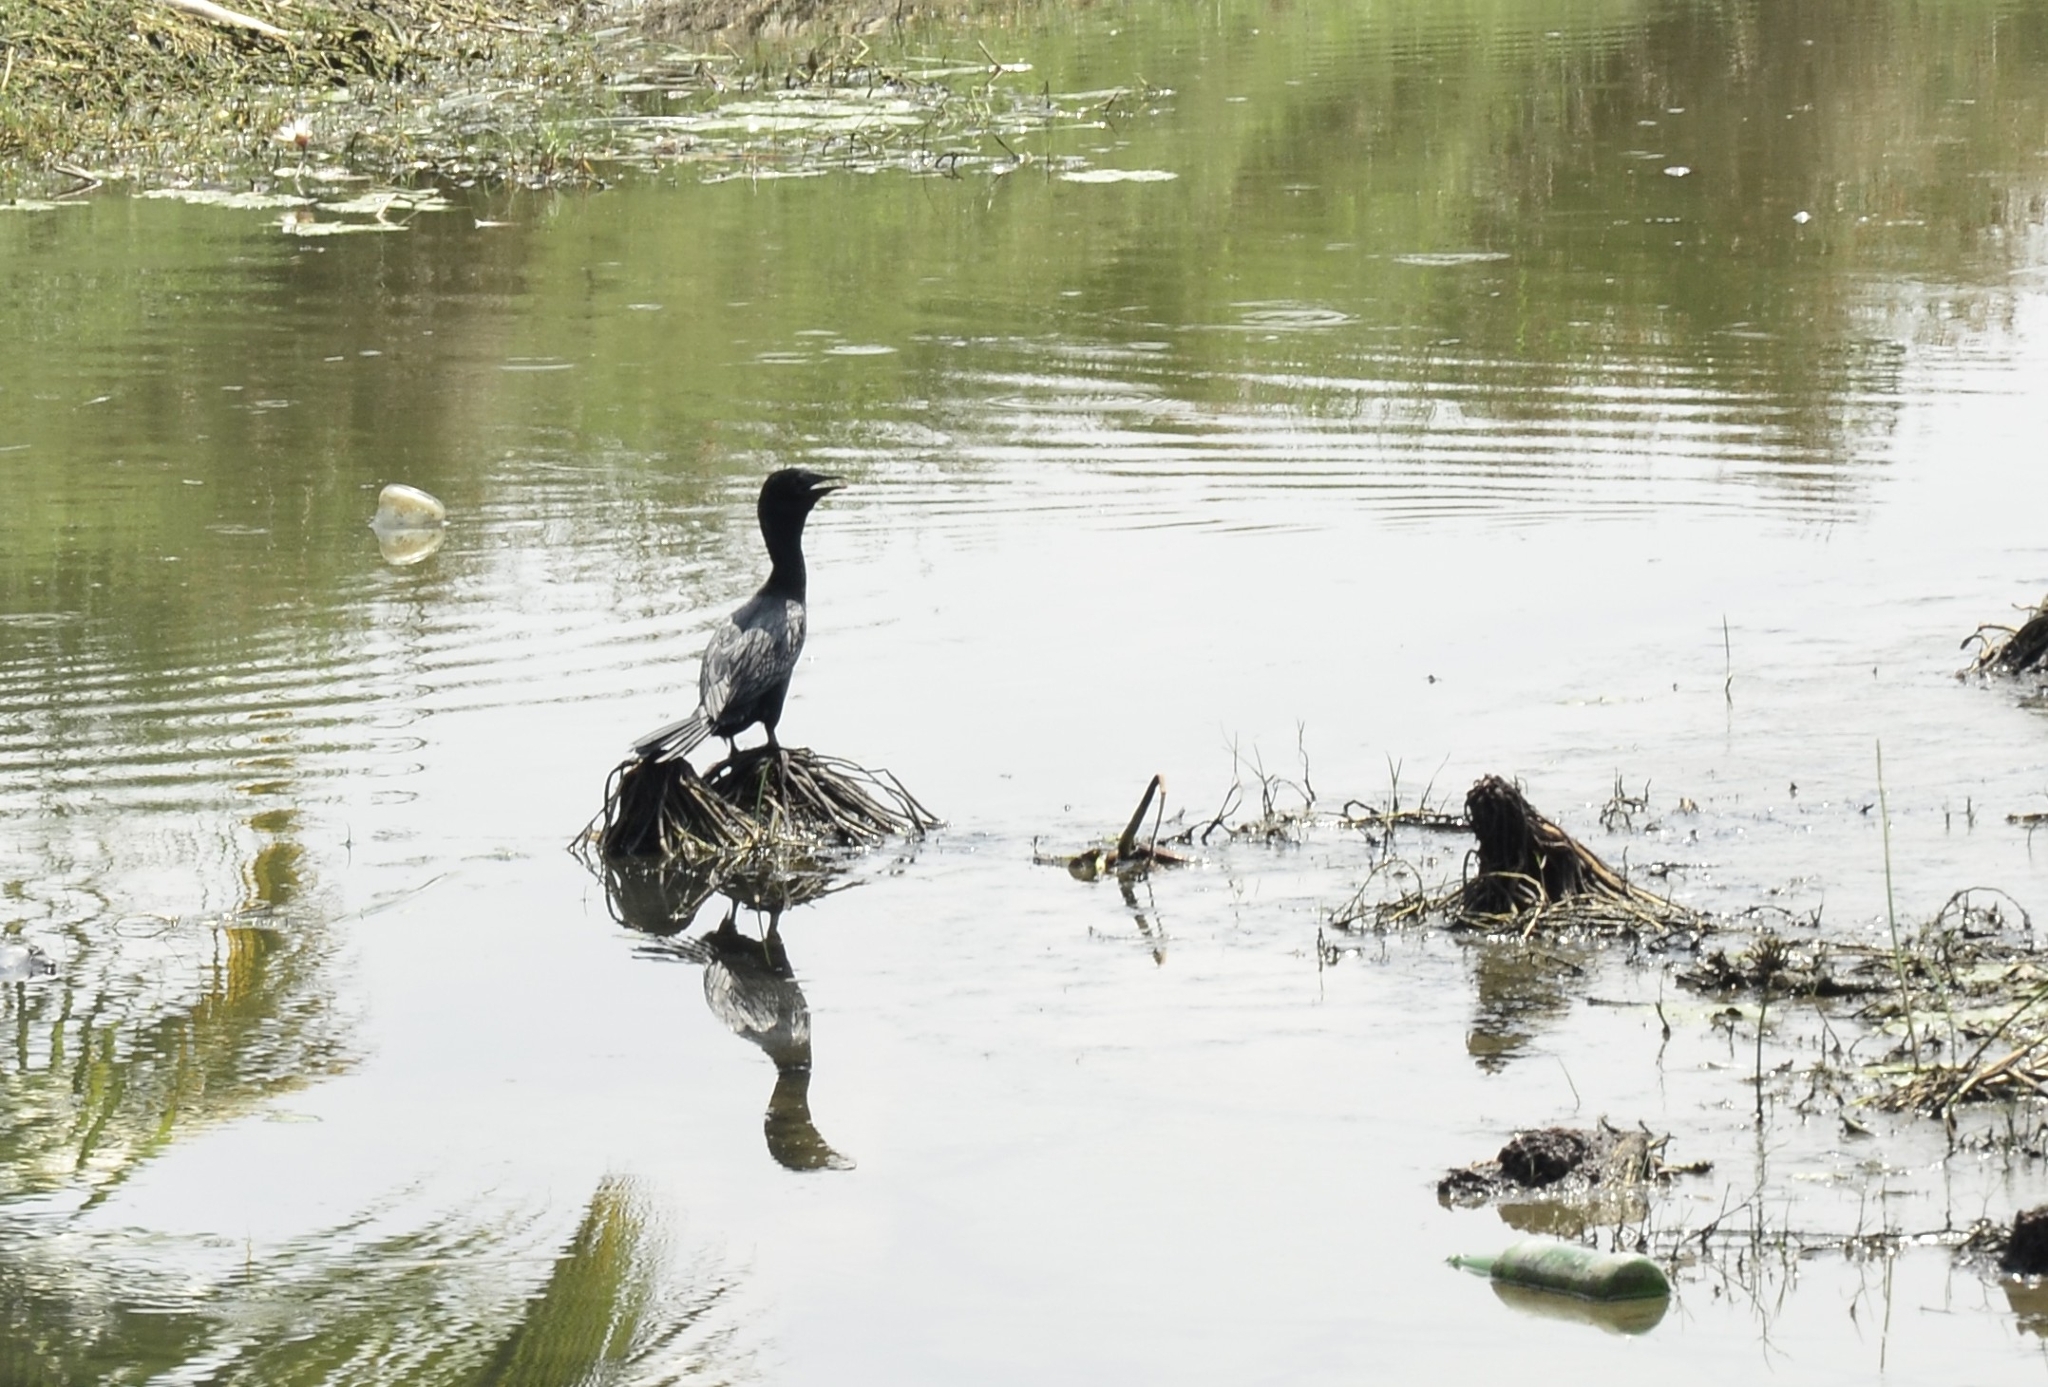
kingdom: Animalia
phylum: Chordata
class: Aves
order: Suliformes
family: Phalacrocoracidae
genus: Microcarbo
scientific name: Microcarbo niger
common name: Little cormorant
